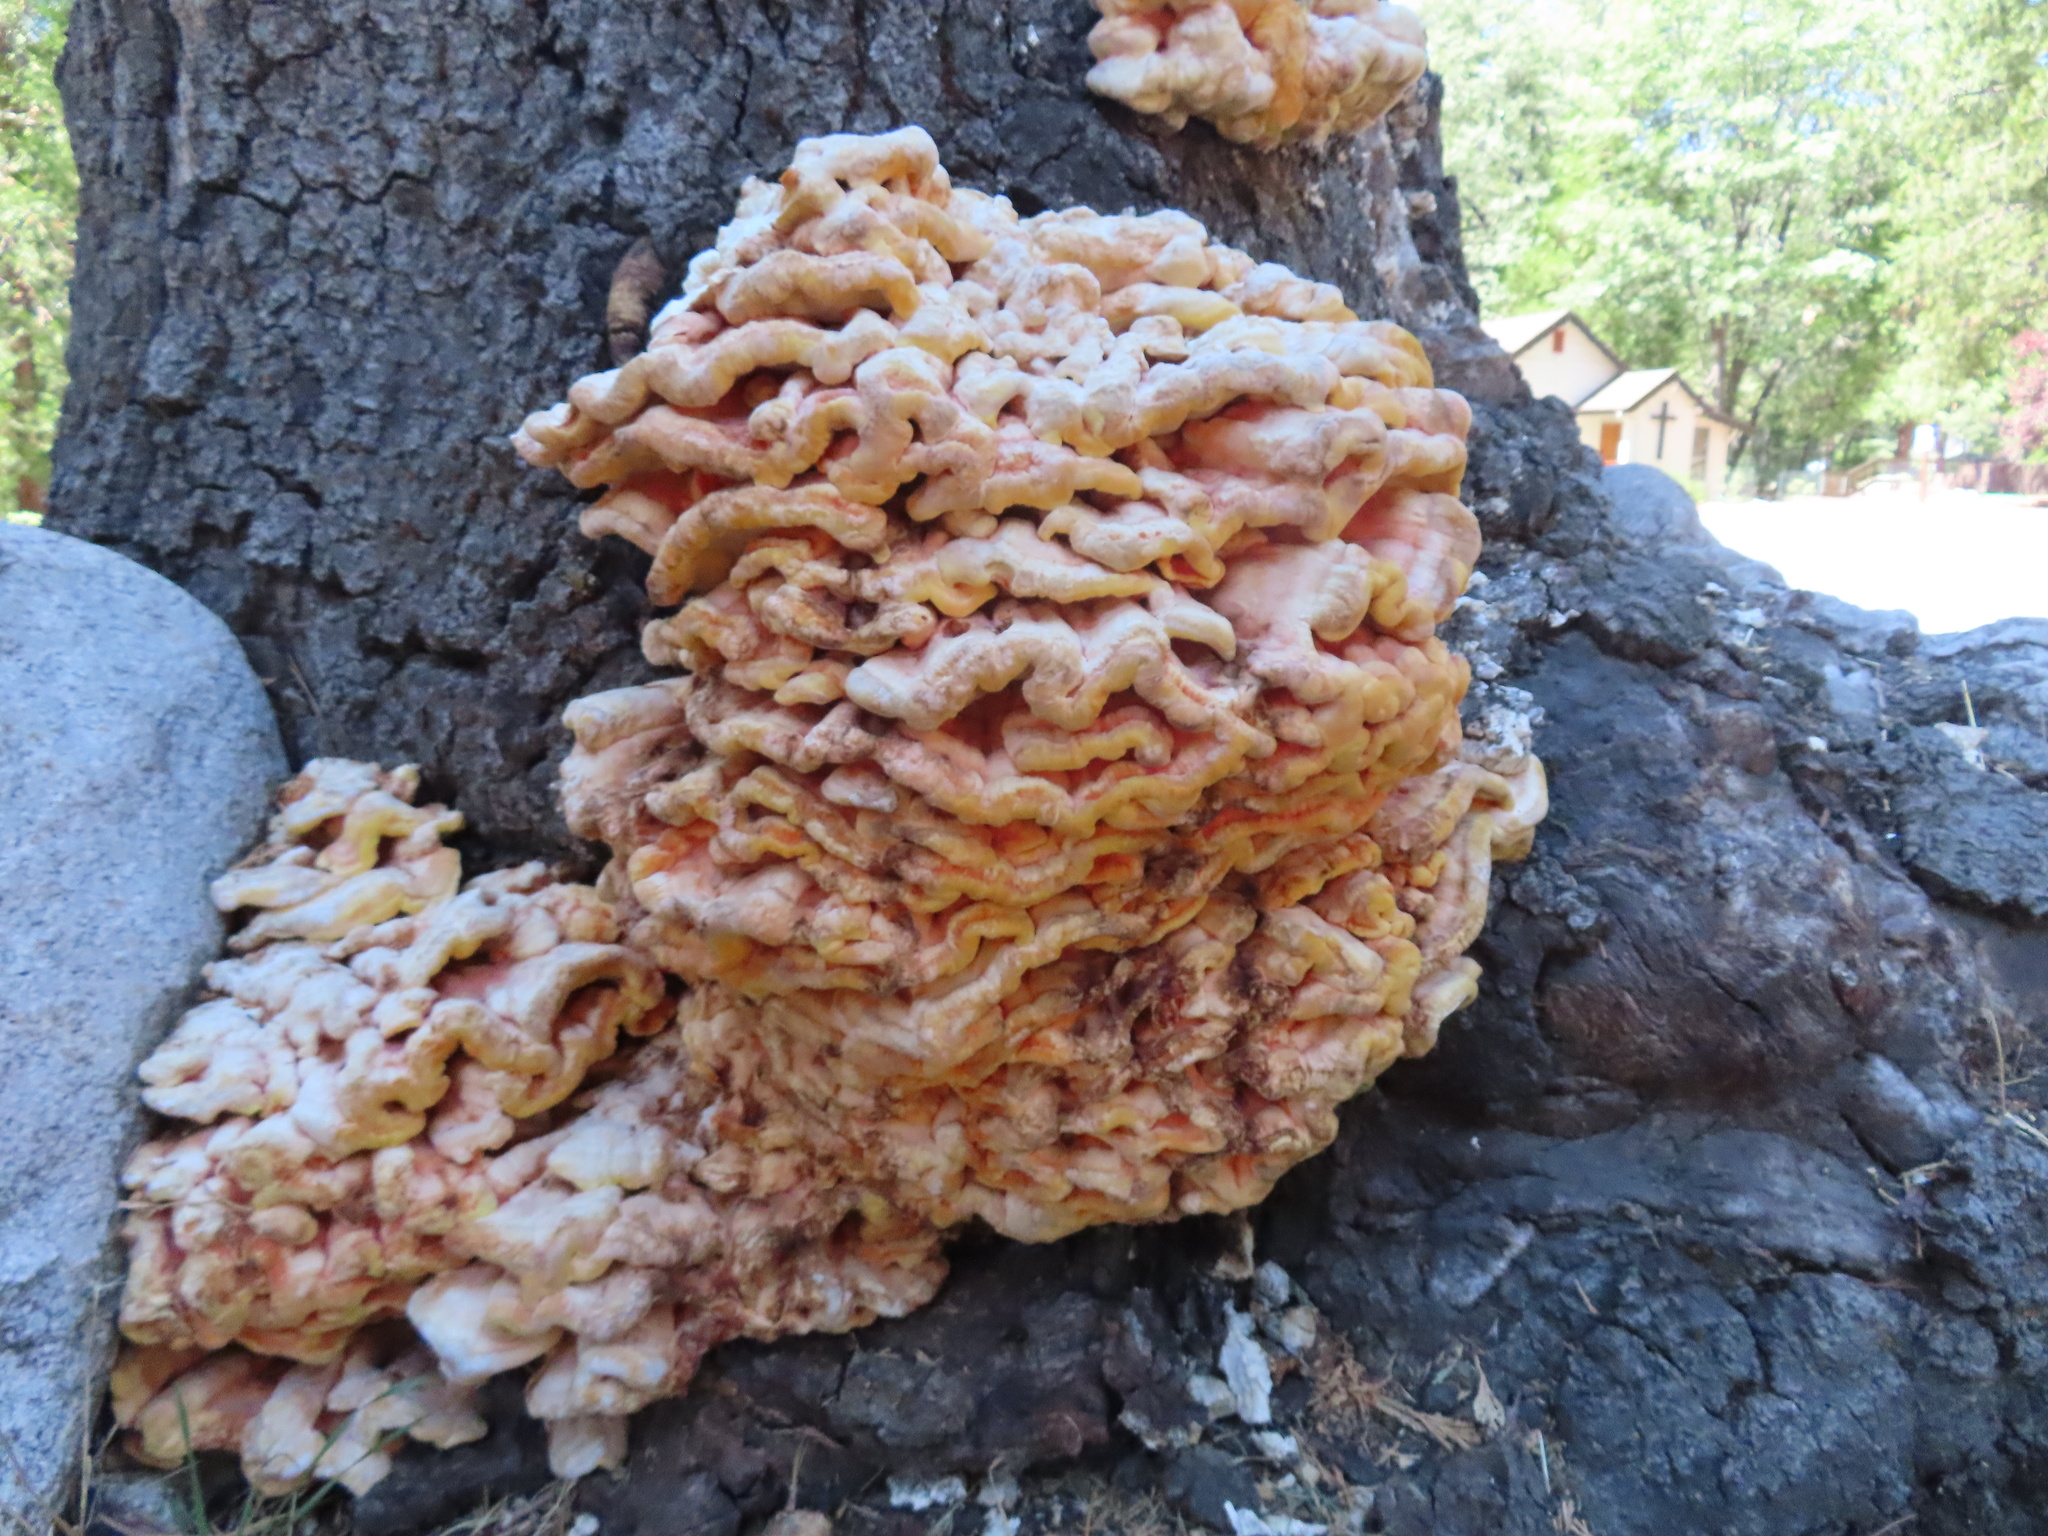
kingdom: Fungi
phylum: Basidiomycota
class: Agaricomycetes
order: Polyporales
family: Laetiporaceae
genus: Laetiporus
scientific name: Laetiporus conifericola
